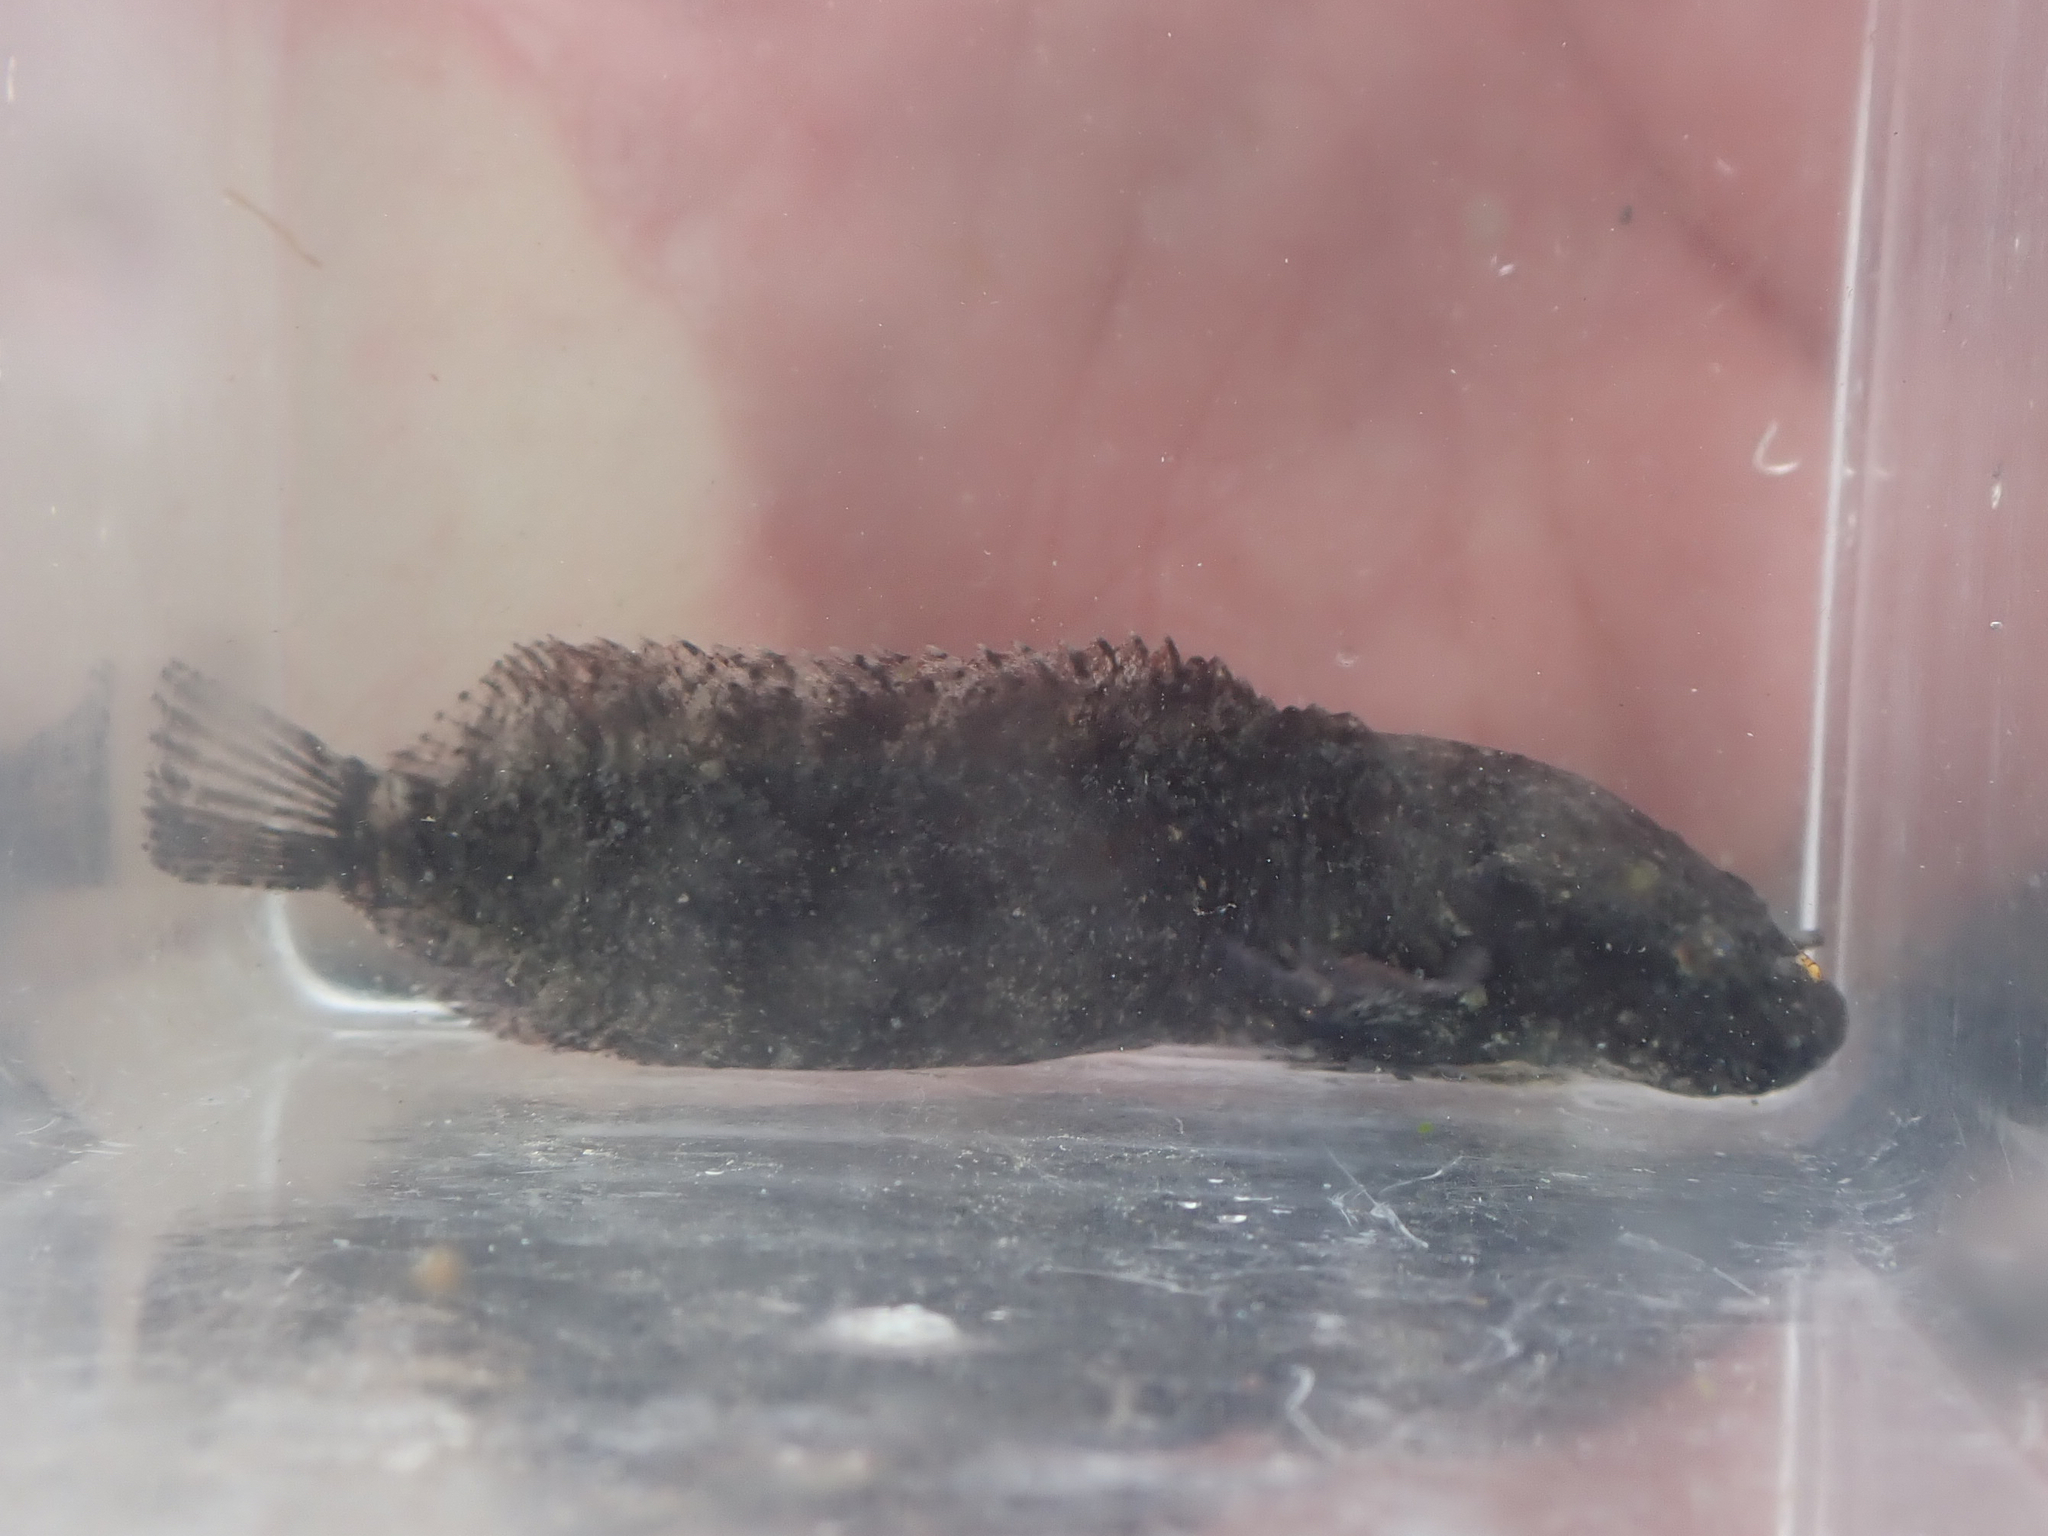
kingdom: Animalia
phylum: Chordata
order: Scorpaeniformes
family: Liparidae
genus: Liparis
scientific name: Liparis cyclopus
